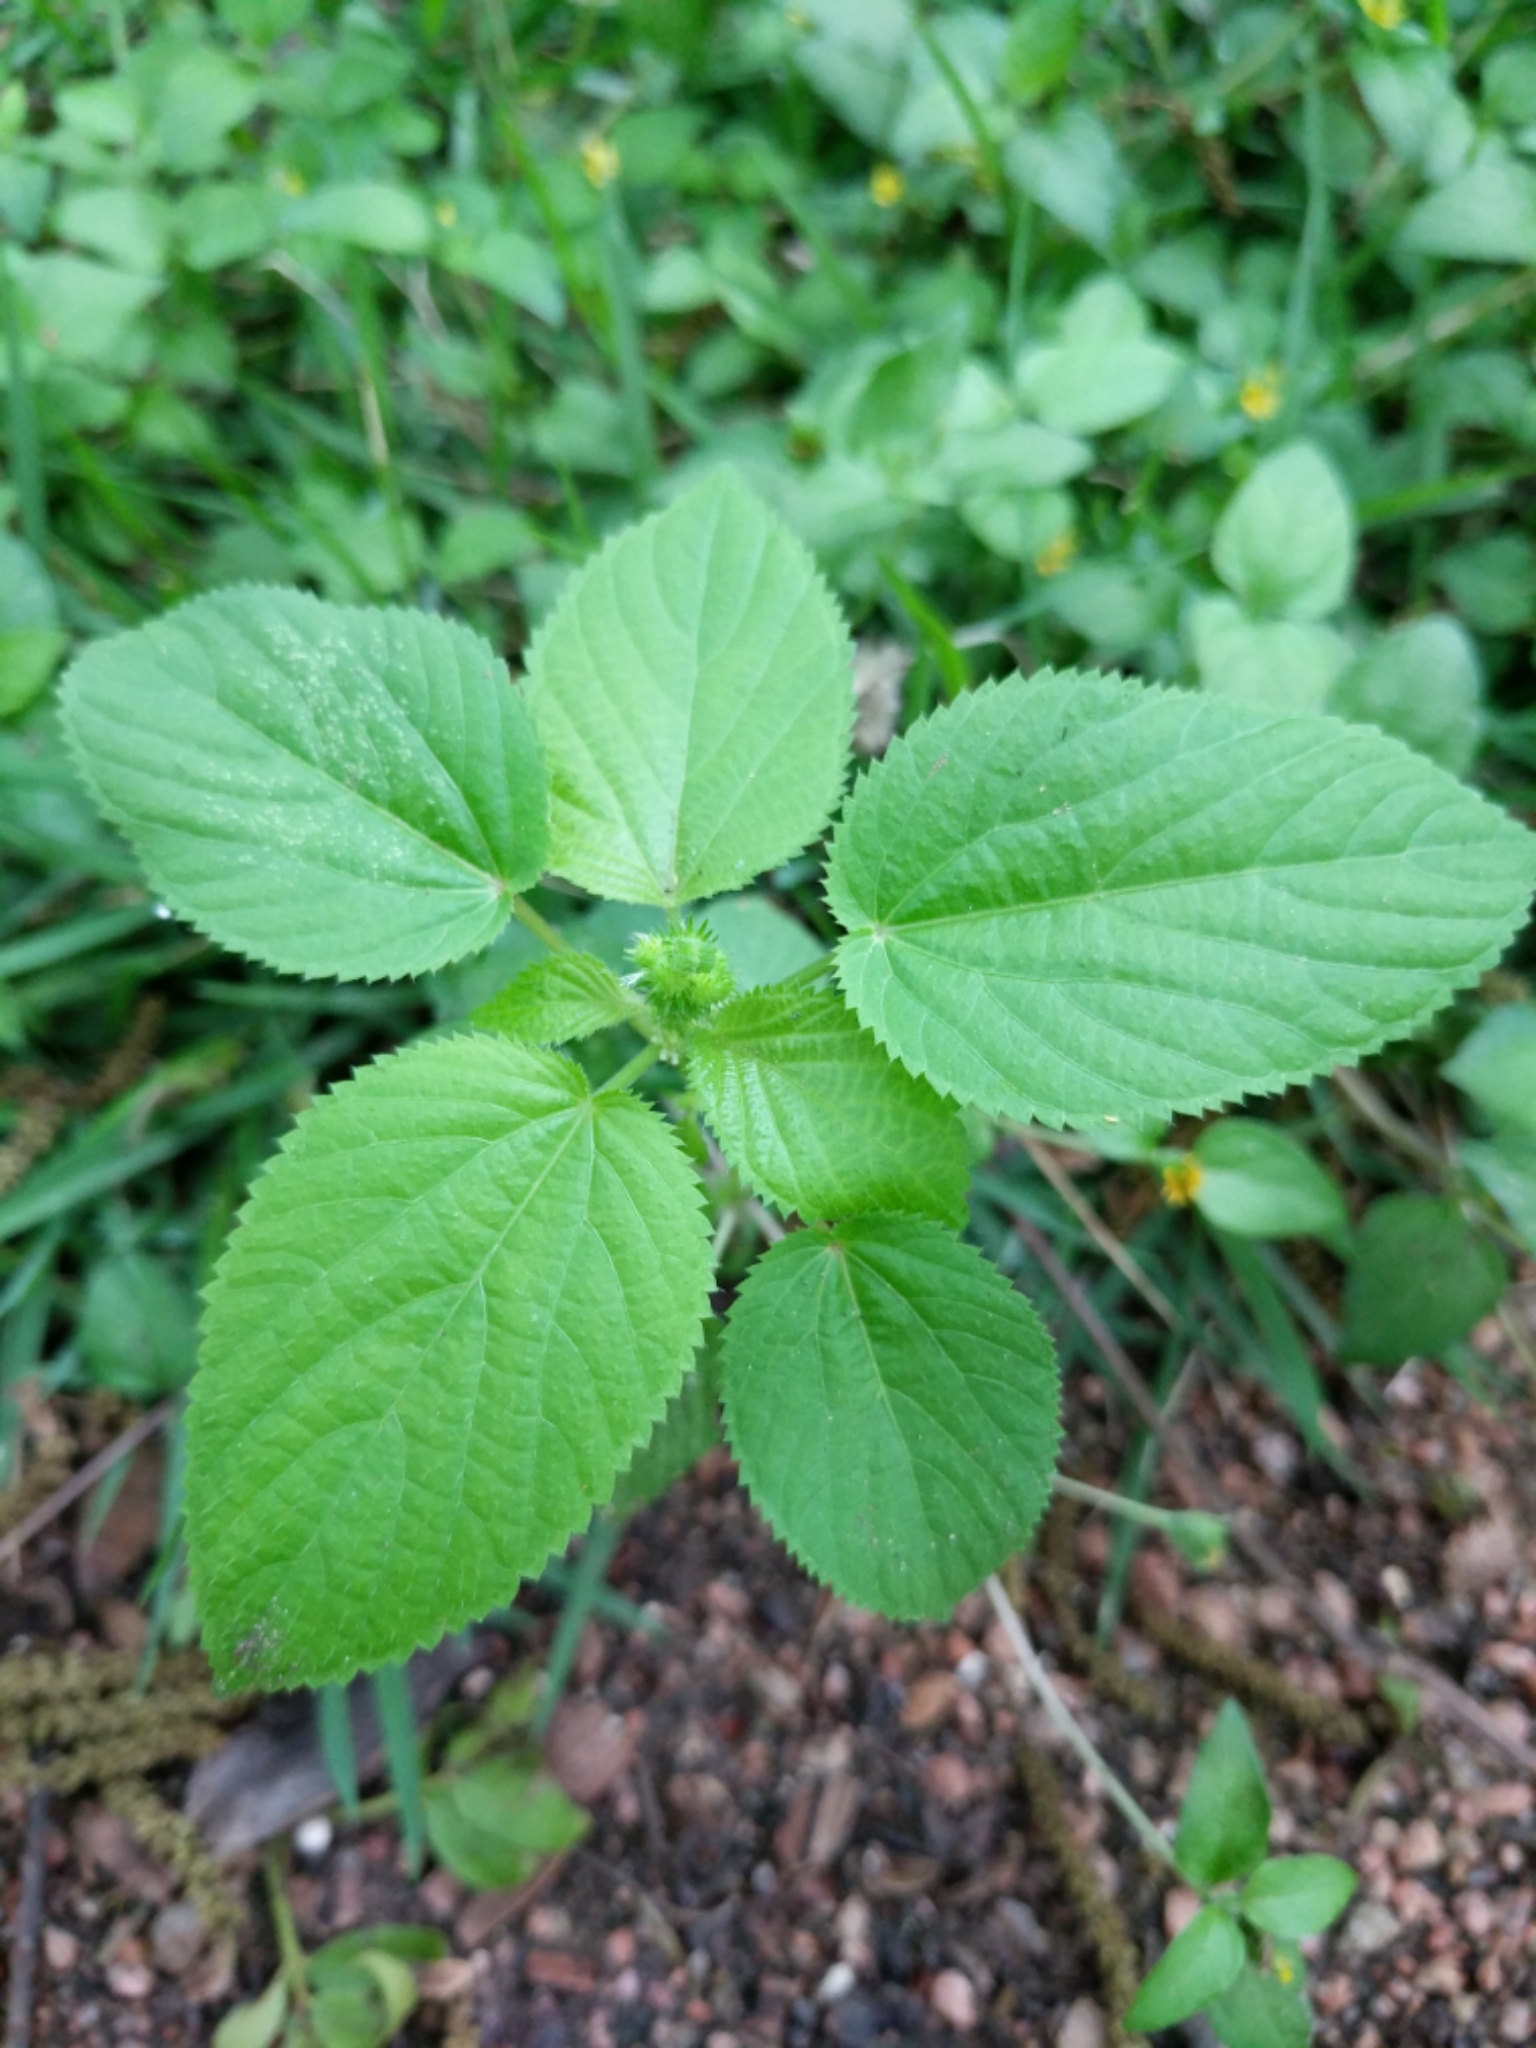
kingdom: Plantae
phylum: Tracheophyta
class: Magnoliopsida
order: Malpighiales
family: Euphorbiaceae
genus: Acalypha
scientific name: Acalypha ostryifolia
